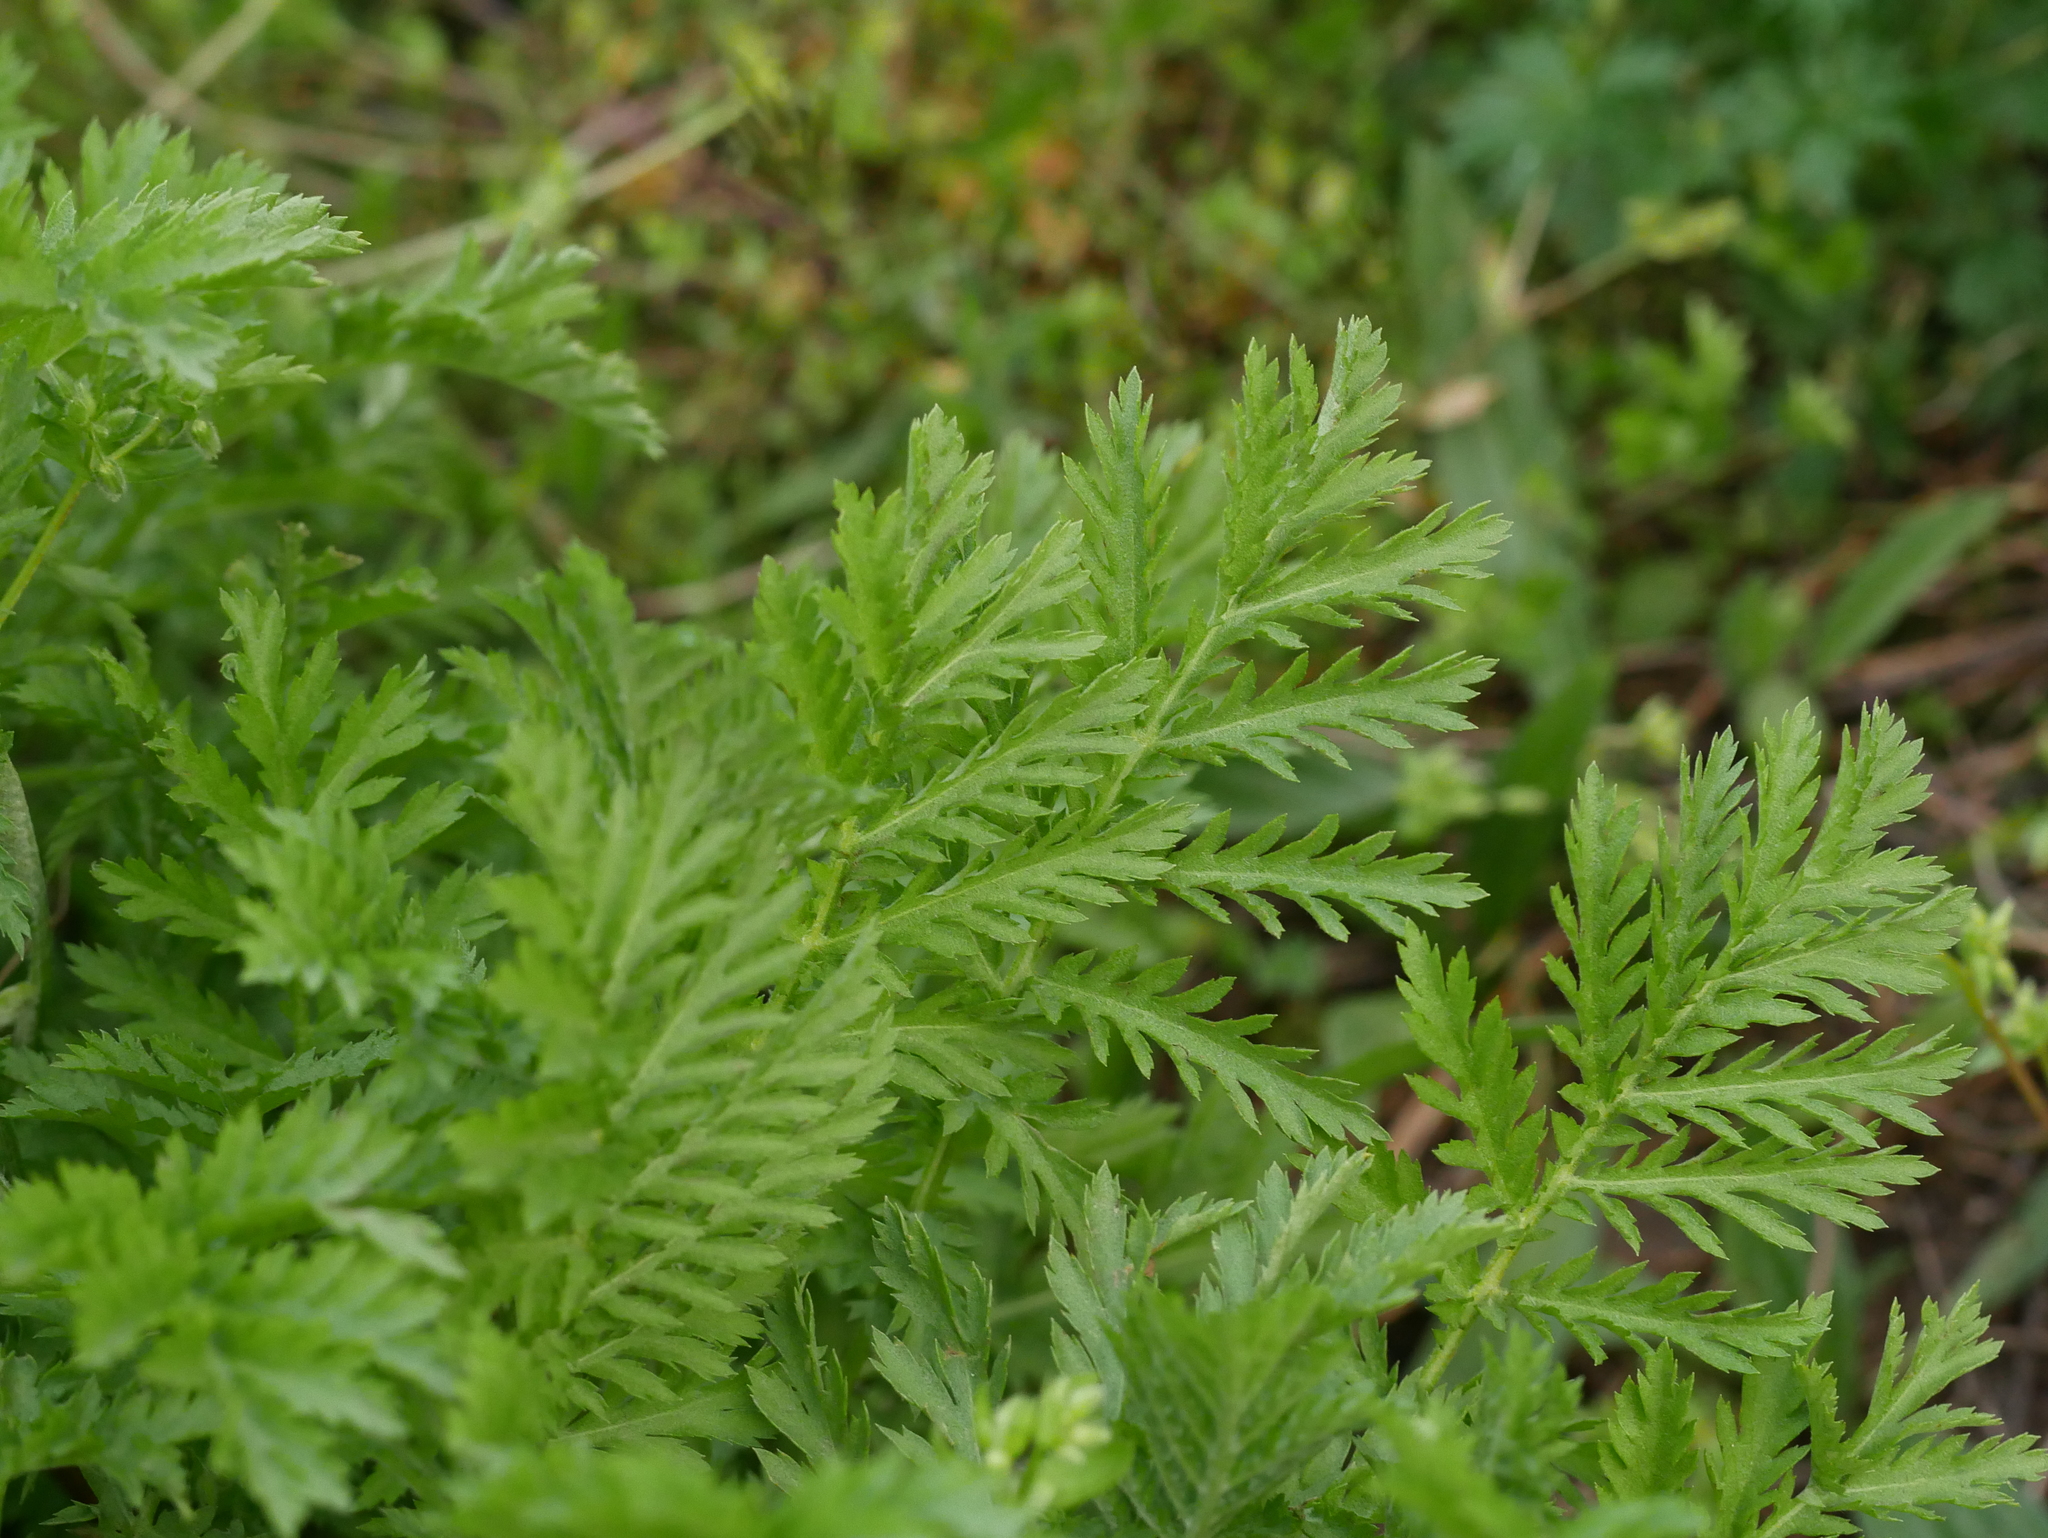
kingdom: Plantae
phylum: Tracheophyta
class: Magnoliopsida
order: Asterales
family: Asteraceae
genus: Tanacetum
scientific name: Tanacetum vulgare
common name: Common tansy
